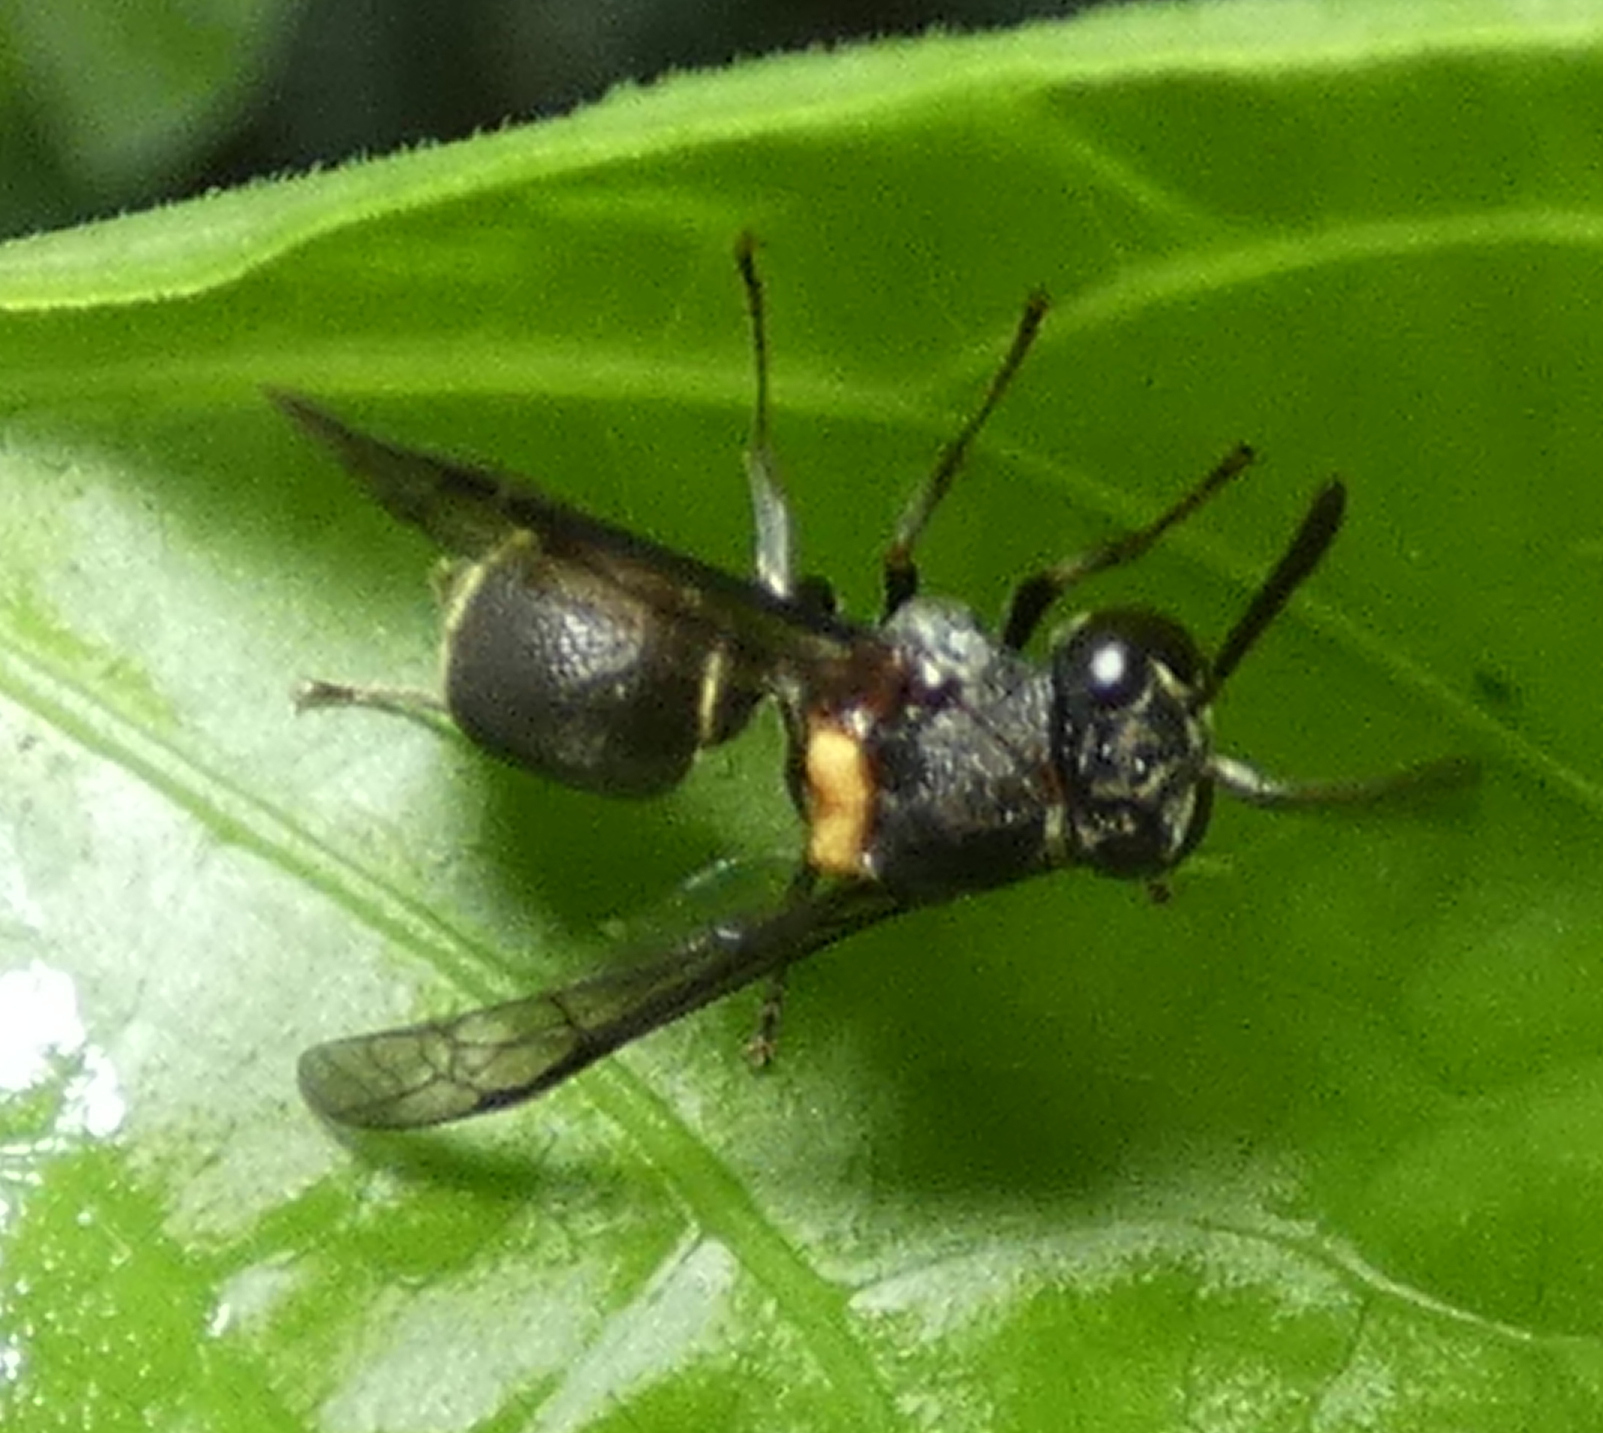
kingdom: Animalia
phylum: Arthropoda
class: Insecta
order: Hymenoptera
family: Vespidae
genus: Brachygastra
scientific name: Brachygastra scutellaris
